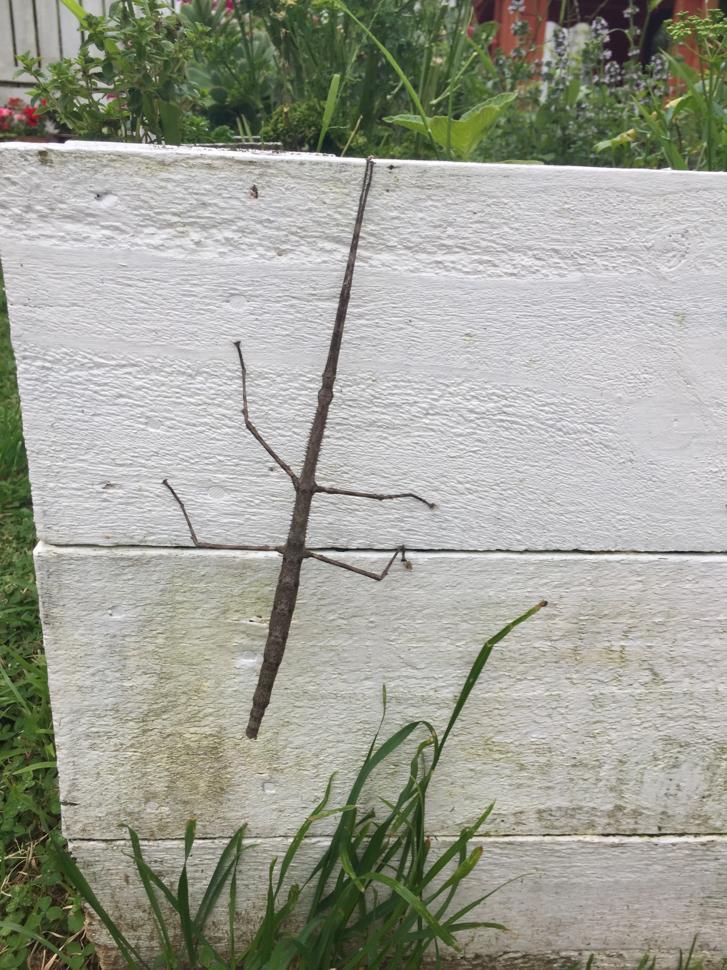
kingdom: Animalia
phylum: Arthropoda
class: Insecta
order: Phasmida
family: Phasmatidae
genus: Argosarchus
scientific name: Argosarchus horridus
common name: Bristly stick insect
